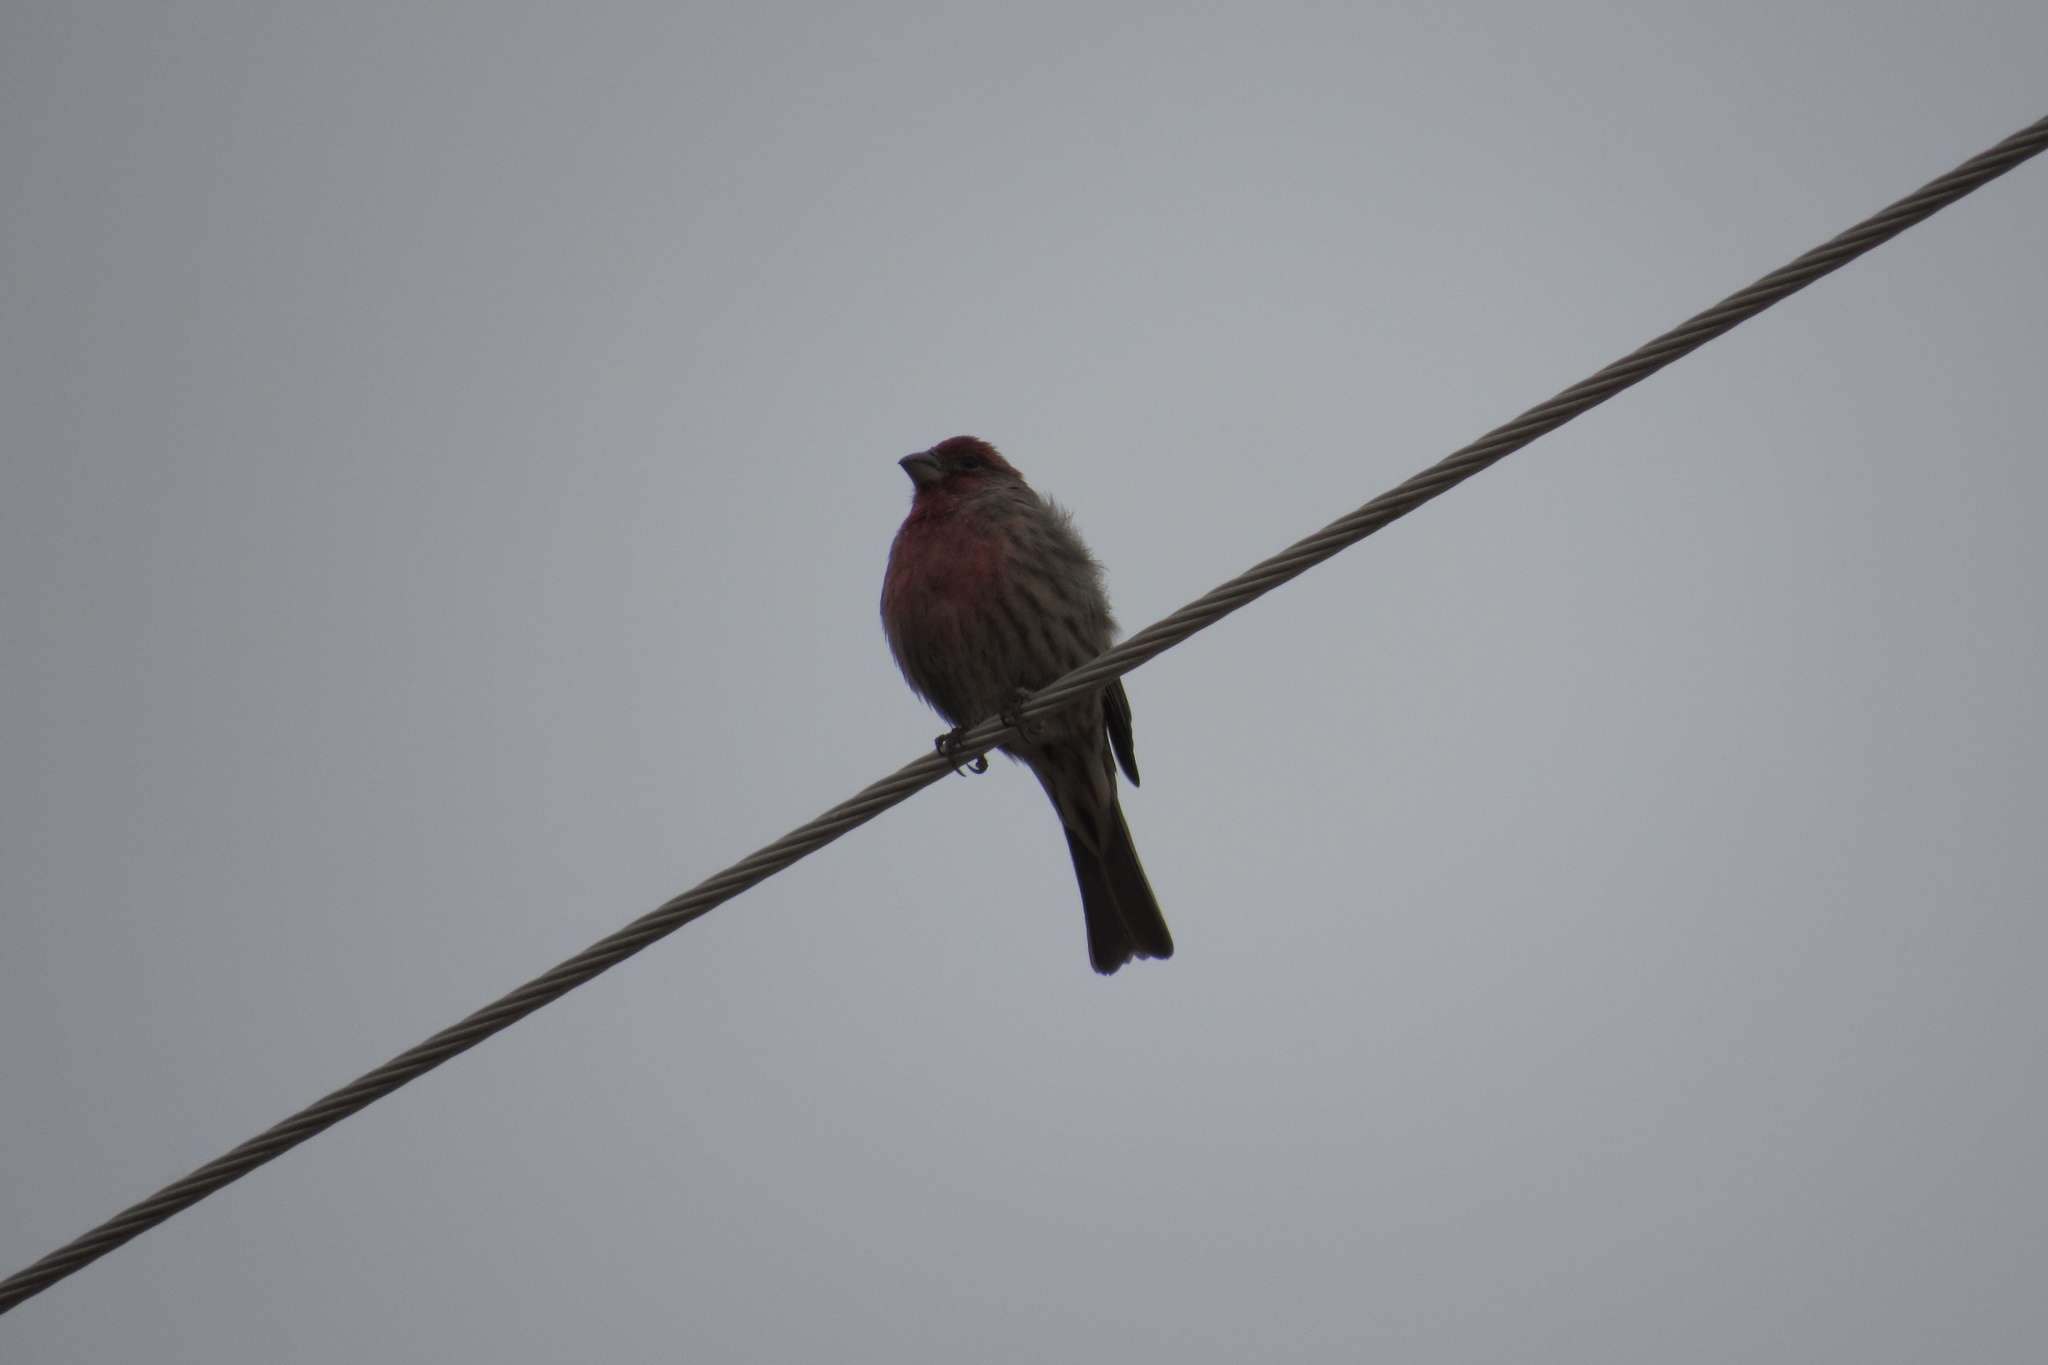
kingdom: Animalia
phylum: Chordata
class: Aves
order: Passeriformes
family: Fringillidae
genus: Haemorhous
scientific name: Haemorhous mexicanus
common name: House finch
